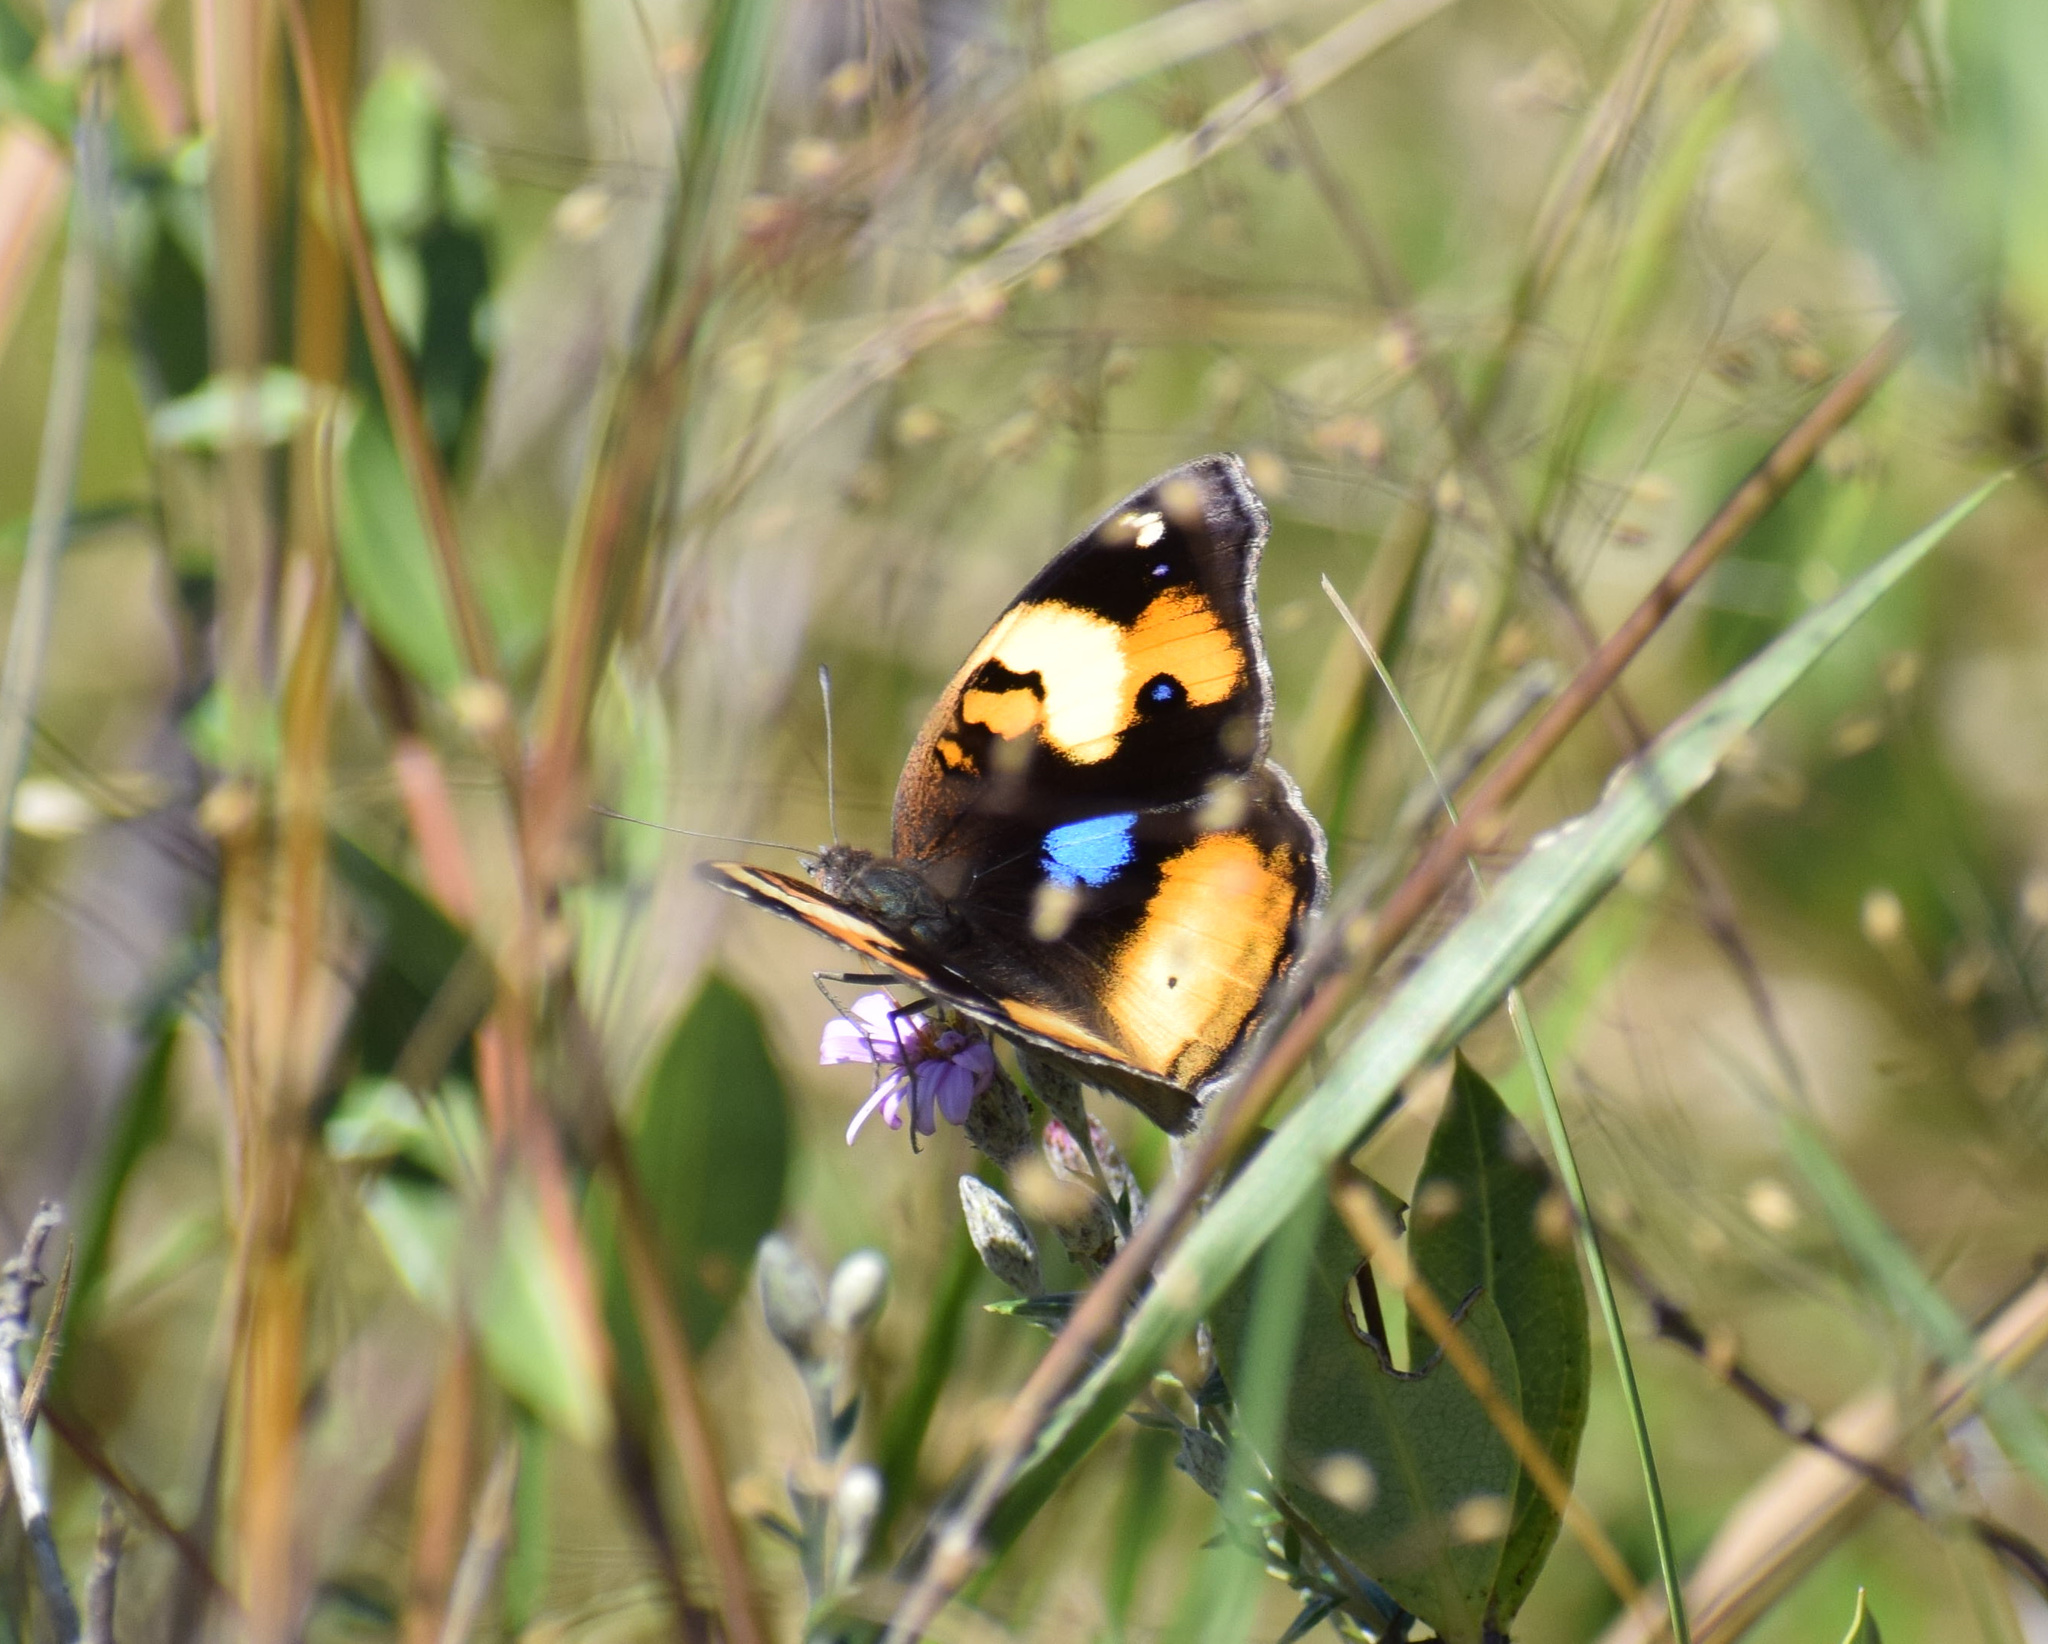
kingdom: Animalia
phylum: Arthropoda
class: Insecta
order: Lepidoptera
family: Nymphalidae
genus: Junonia
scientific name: Junonia hierta
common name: Yellow pansy
